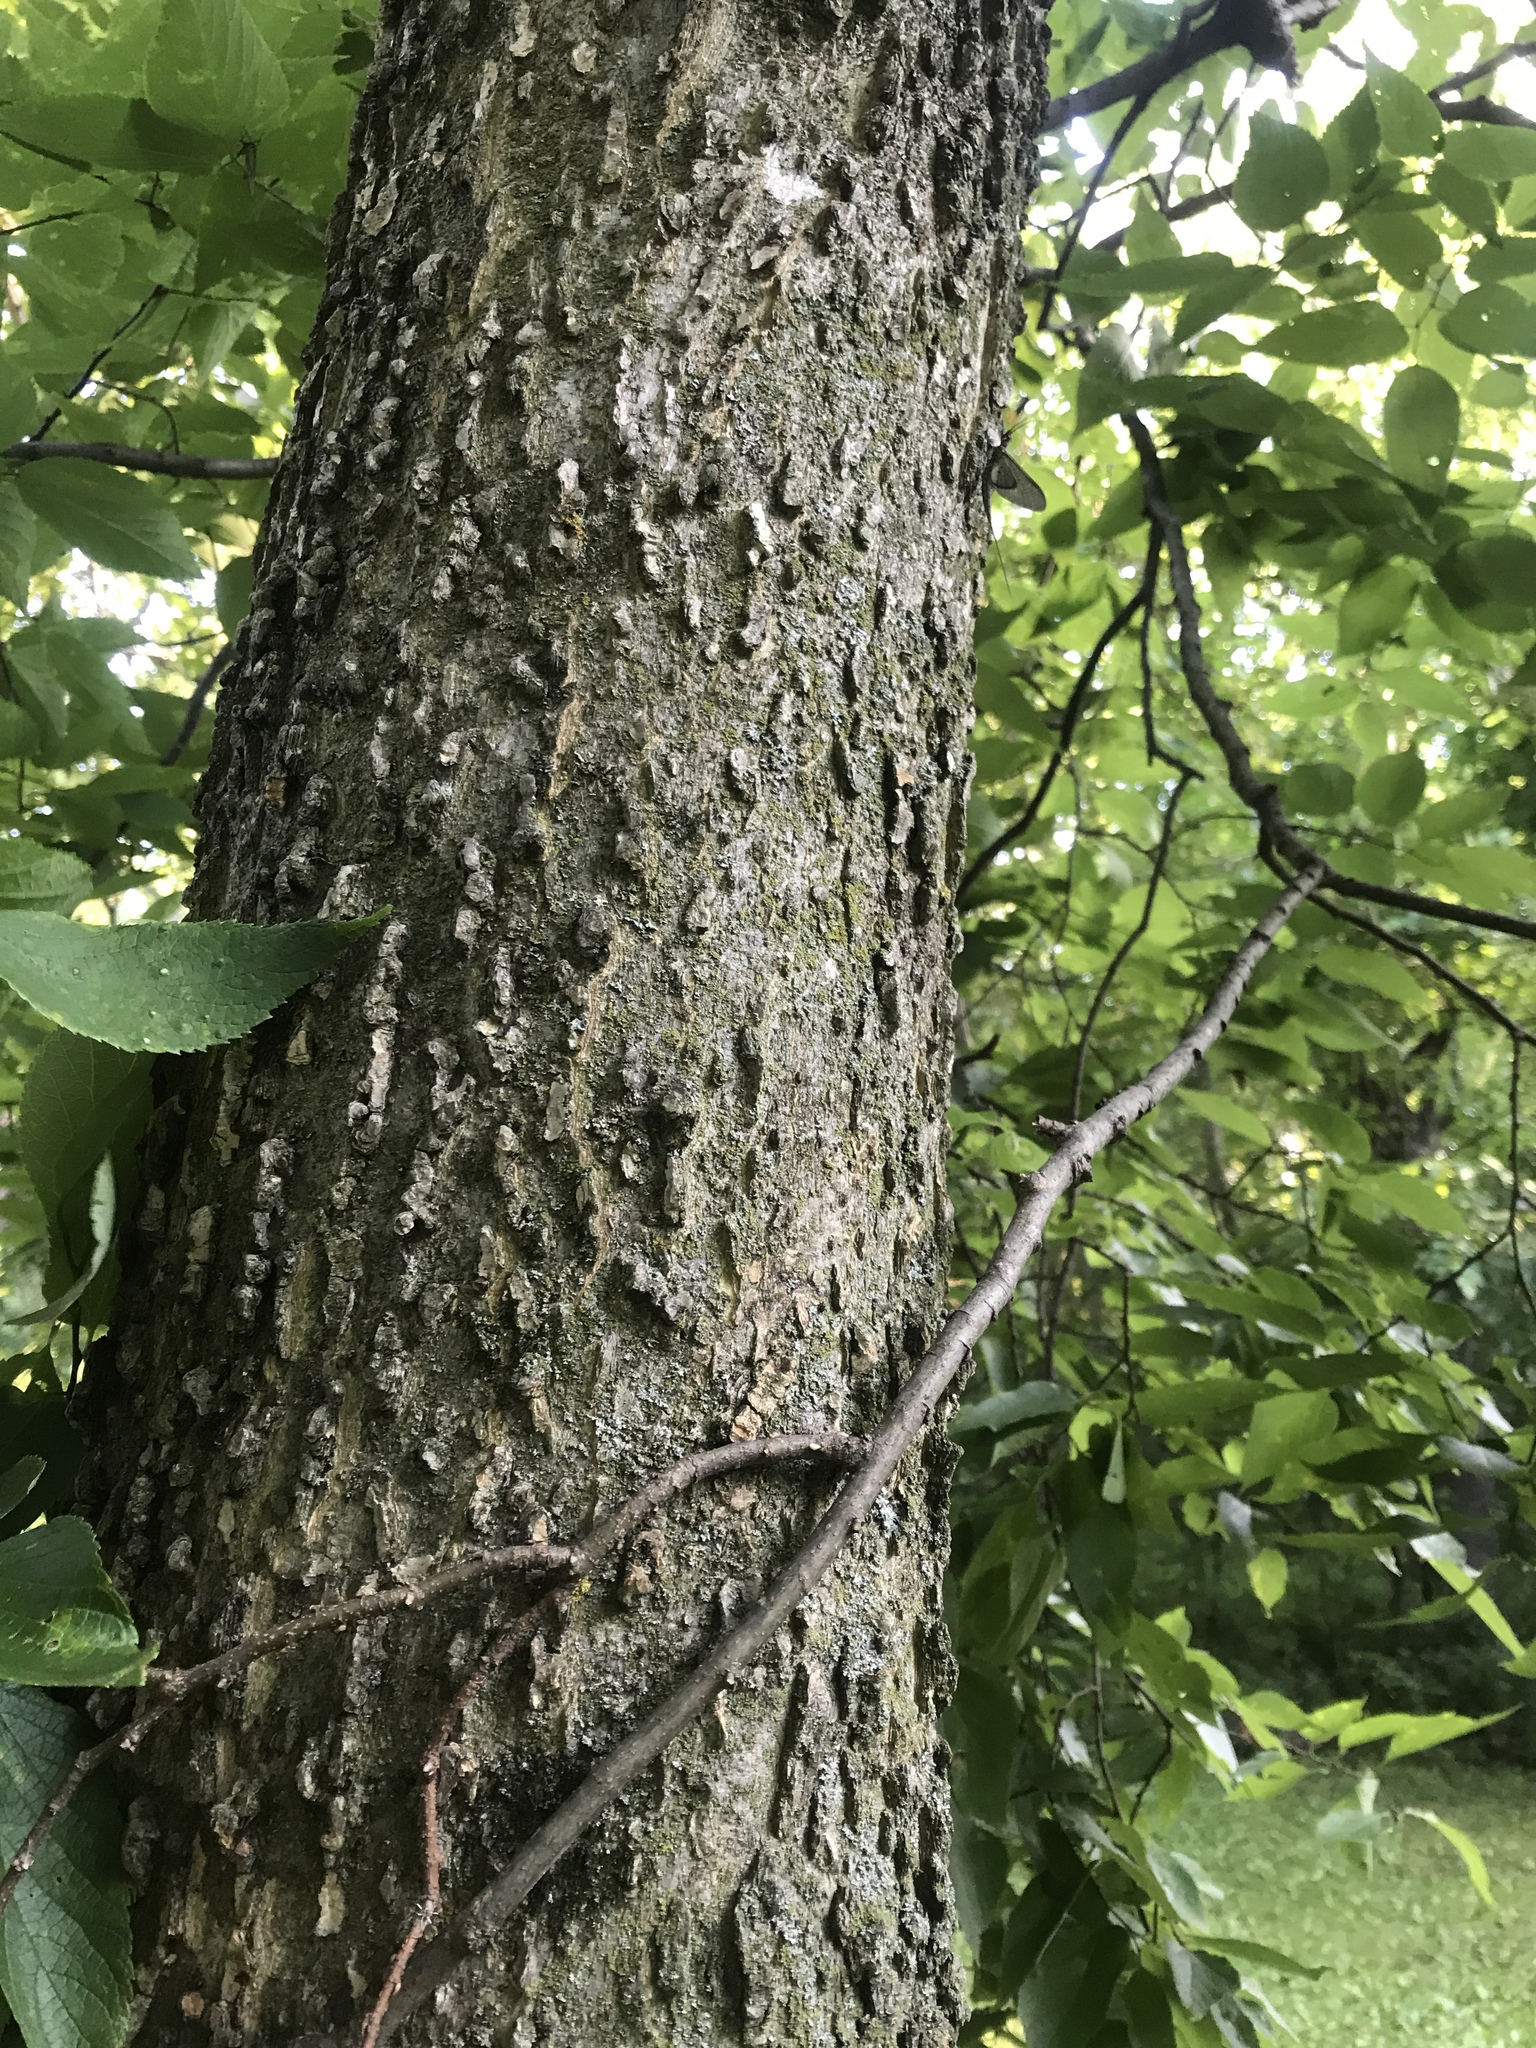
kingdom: Plantae
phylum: Tracheophyta
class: Magnoliopsida
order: Rosales
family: Cannabaceae
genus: Celtis
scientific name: Celtis occidentalis
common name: Common hackberry
